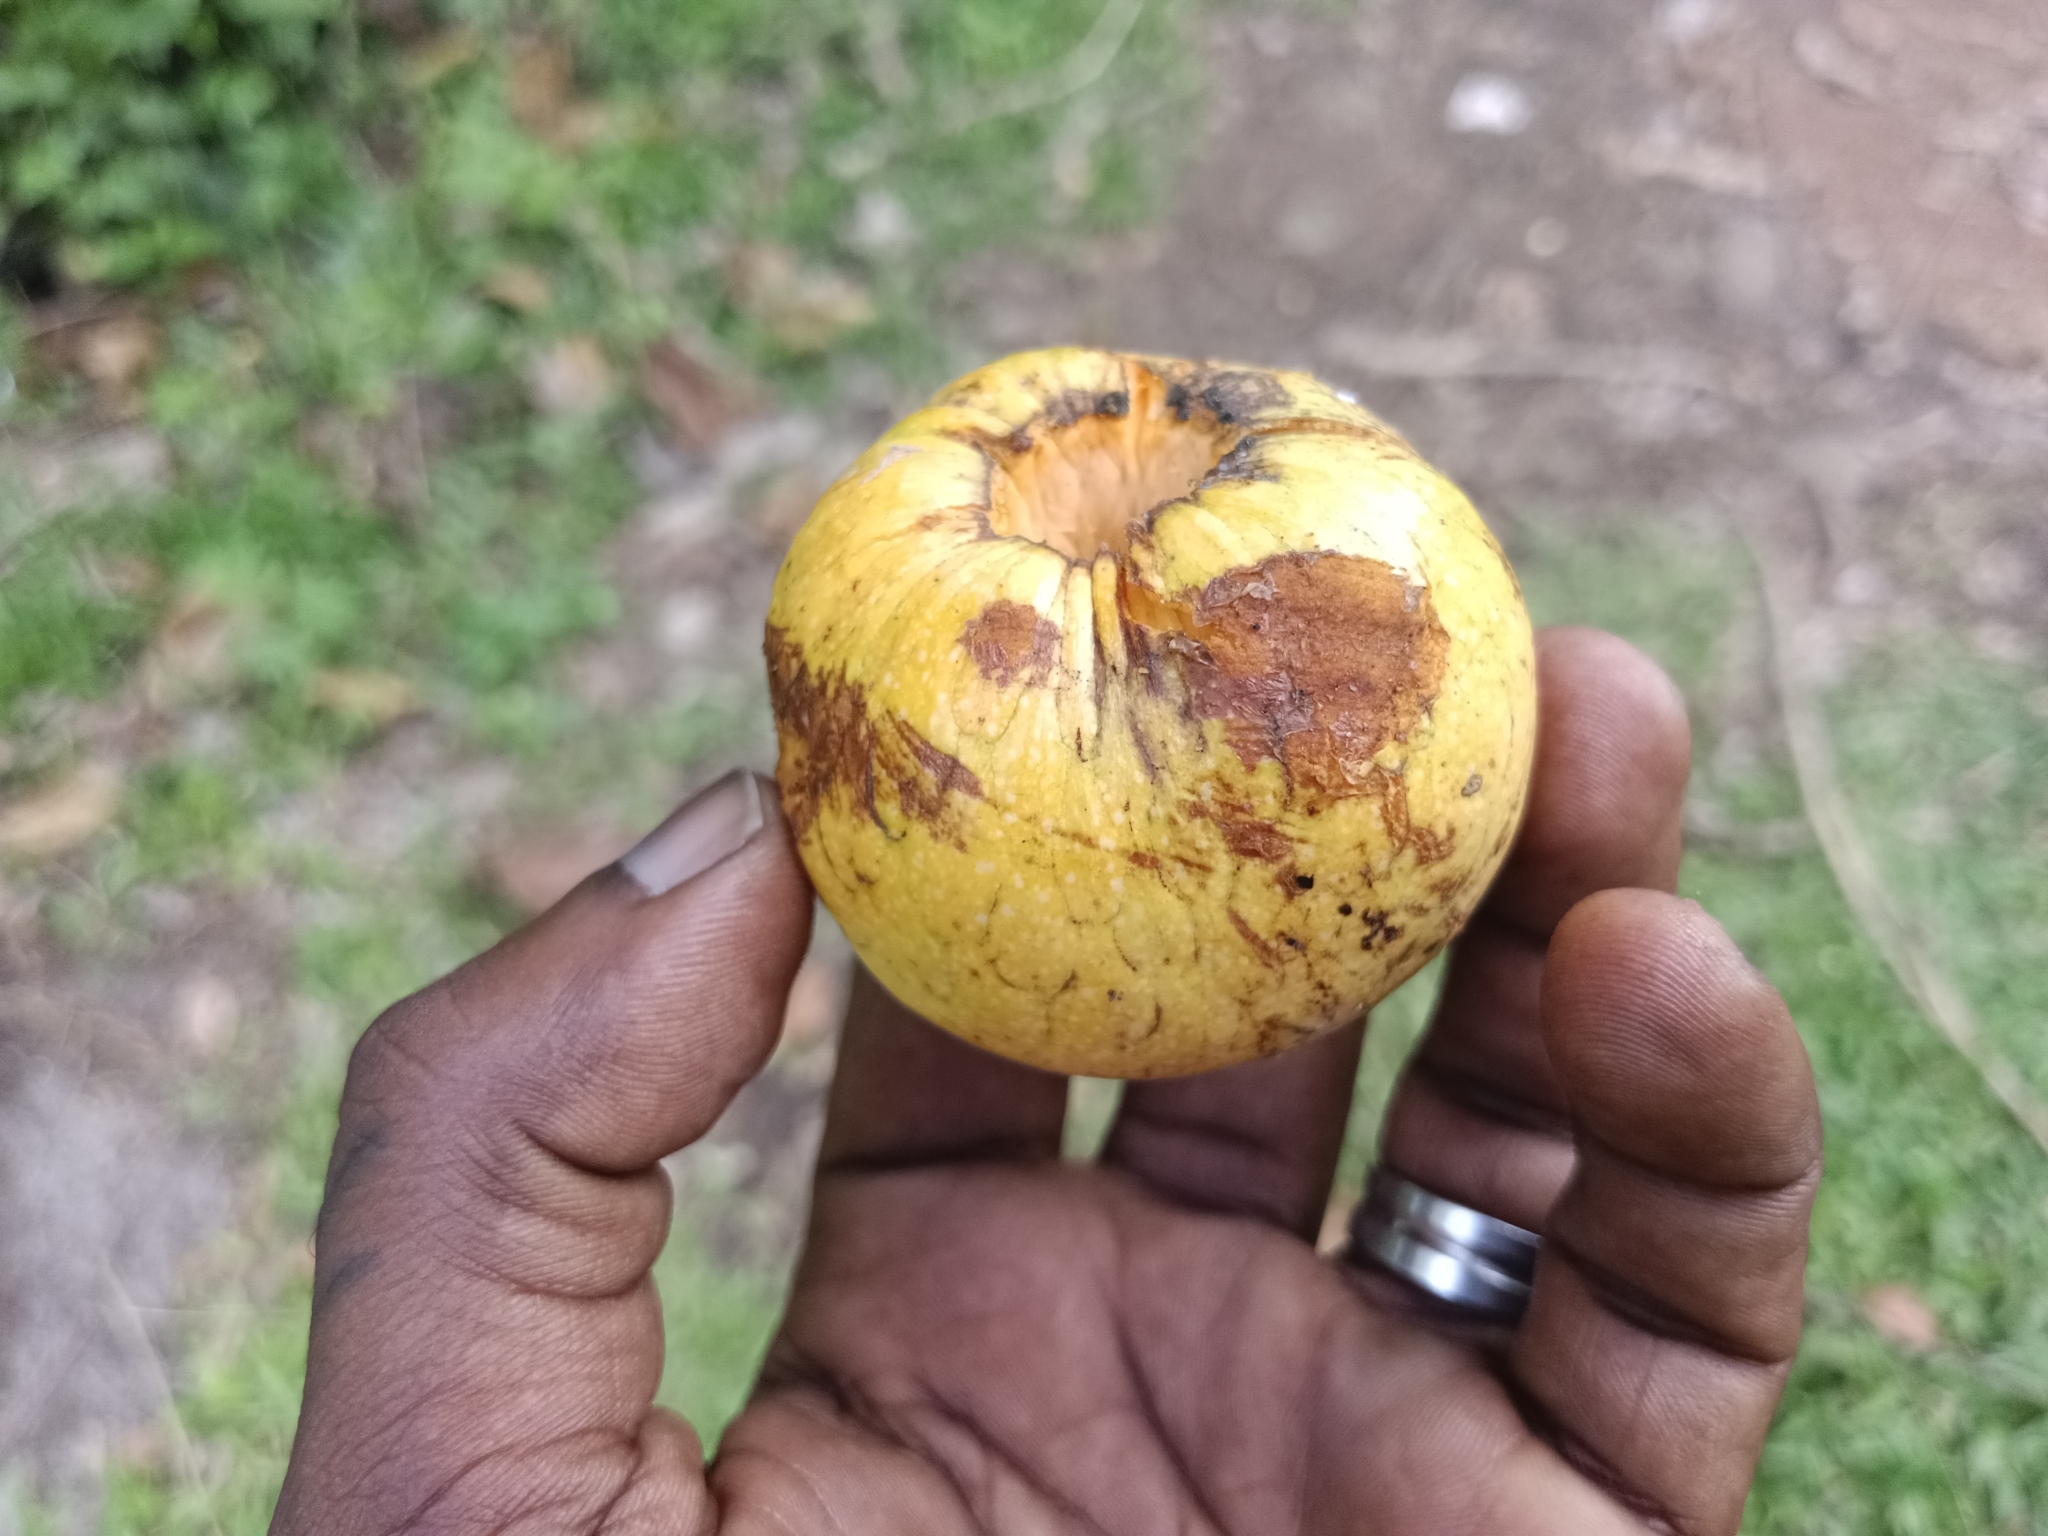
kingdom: Plantae
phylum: Tracheophyta
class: Magnoliopsida
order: Magnoliales
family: Annonaceae
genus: Annona
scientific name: Annona glabra
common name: Monkey apple
